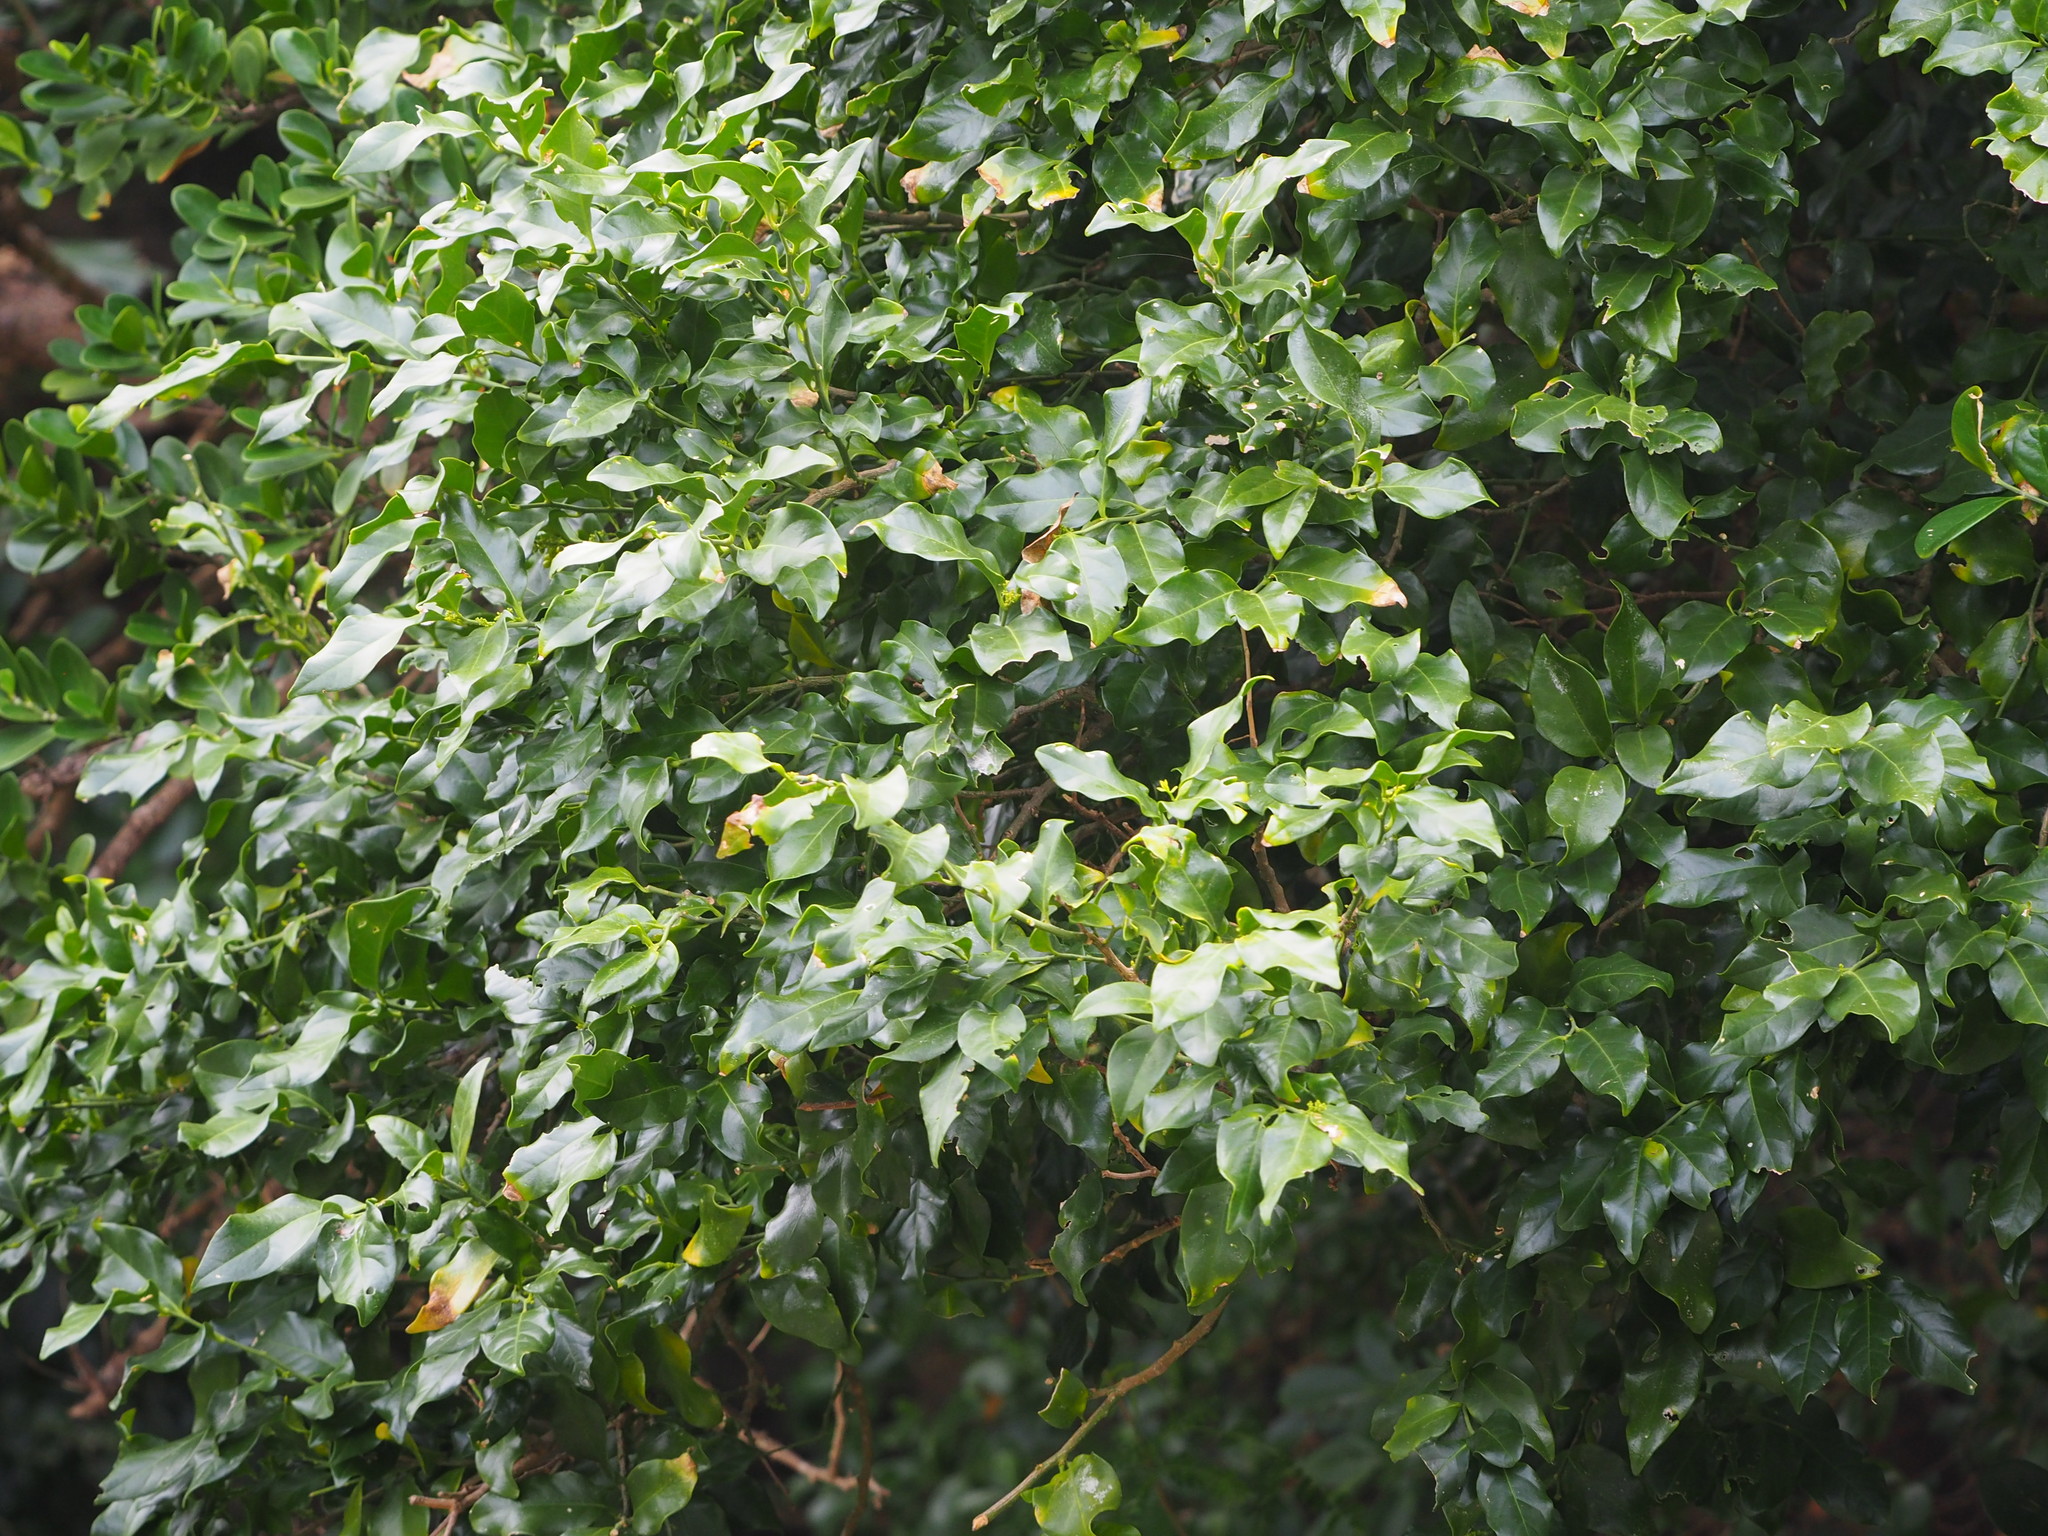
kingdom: Plantae
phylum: Tracheophyta
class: Magnoliopsida
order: Santalales
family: Opiliaceae
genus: Champereia
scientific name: Champereia manillana
